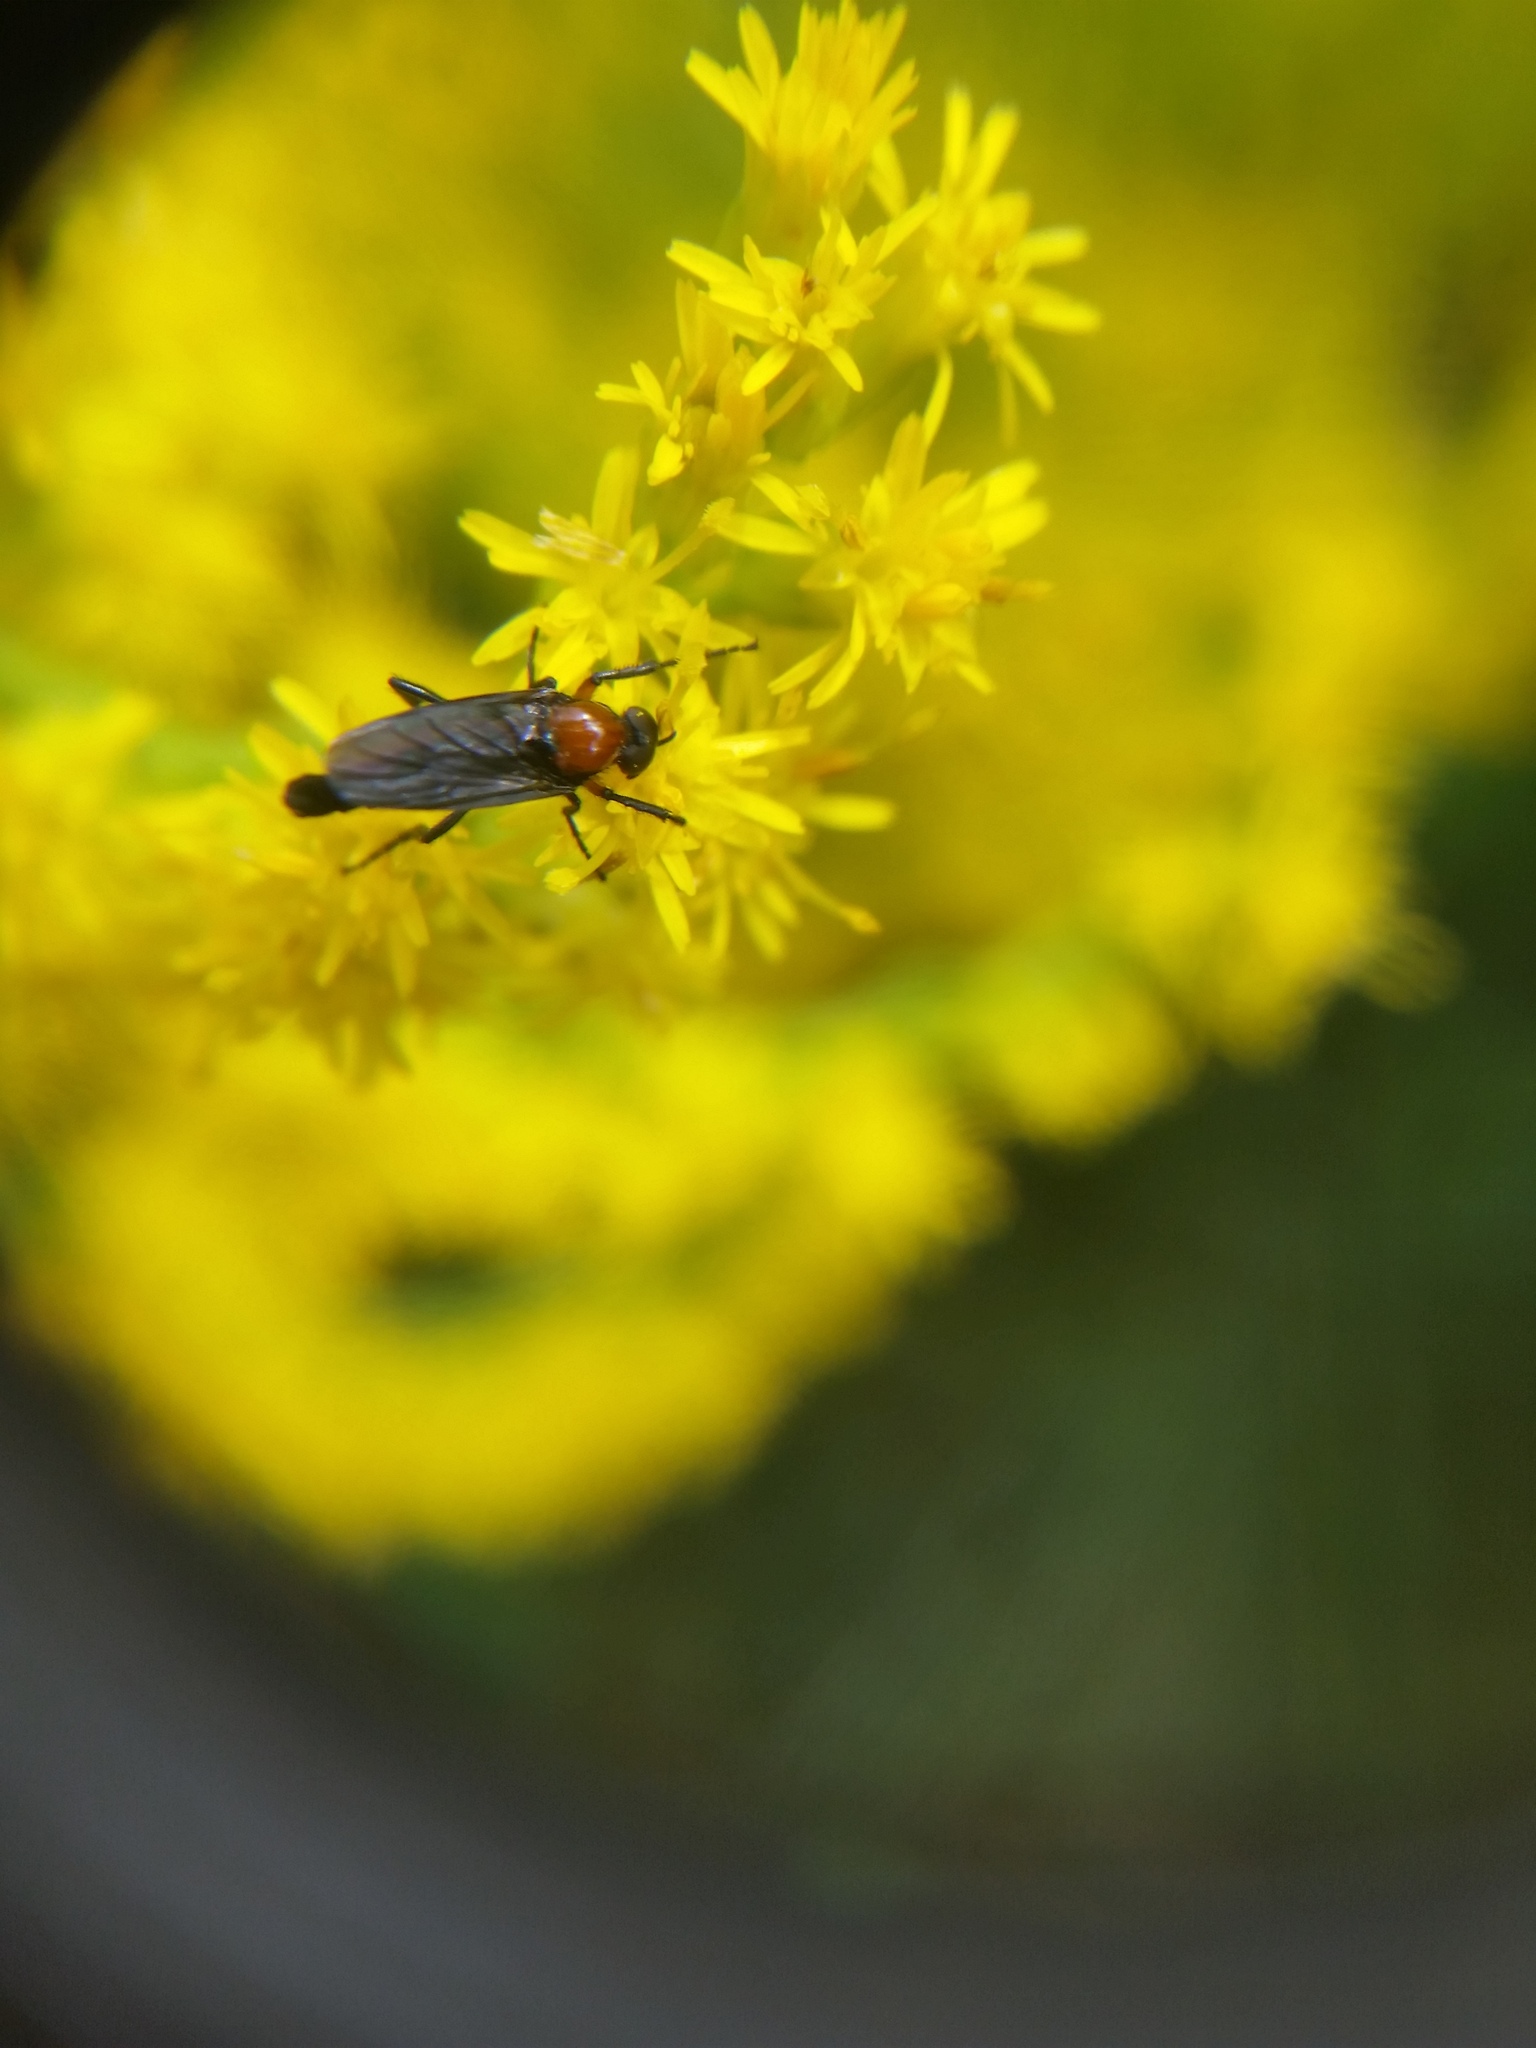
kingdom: Animalia
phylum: Arthropoda
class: Insecta
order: Diptera
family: Bibionidae
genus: Dilophus
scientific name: Dilophus spinipes
